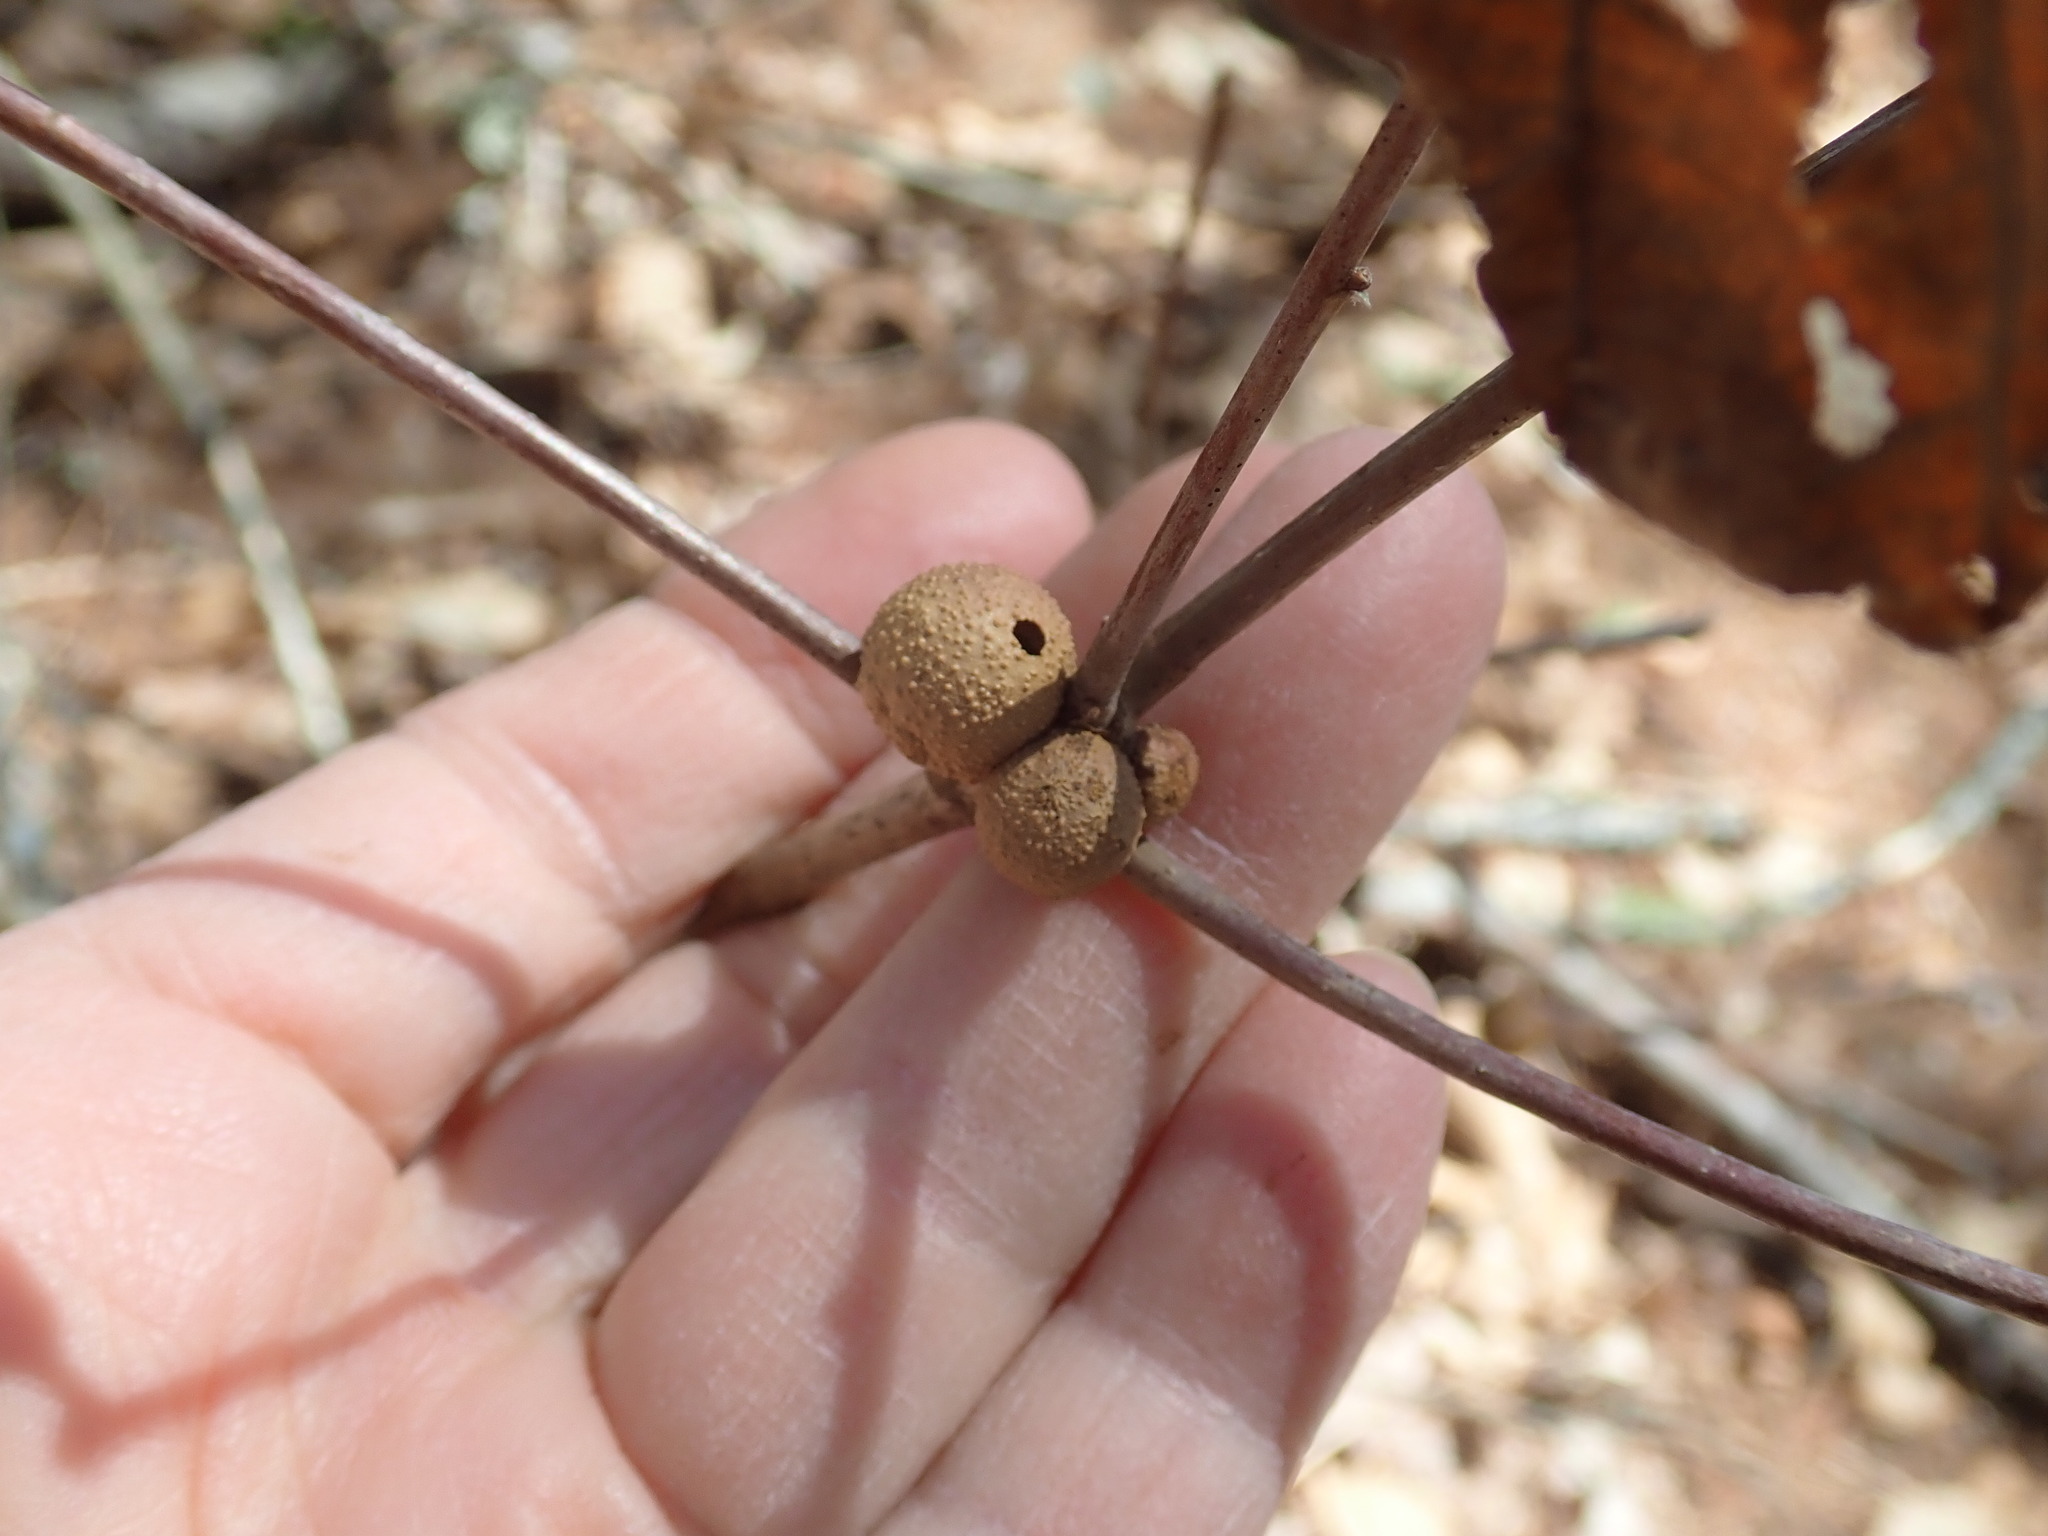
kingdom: Animalia
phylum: Arthropoda
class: Insecta
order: Hymenoptera
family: Cynipidae
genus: Disholcaspis
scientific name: Disholcaspis quercusglobulus
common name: Round bullet gall wasp
